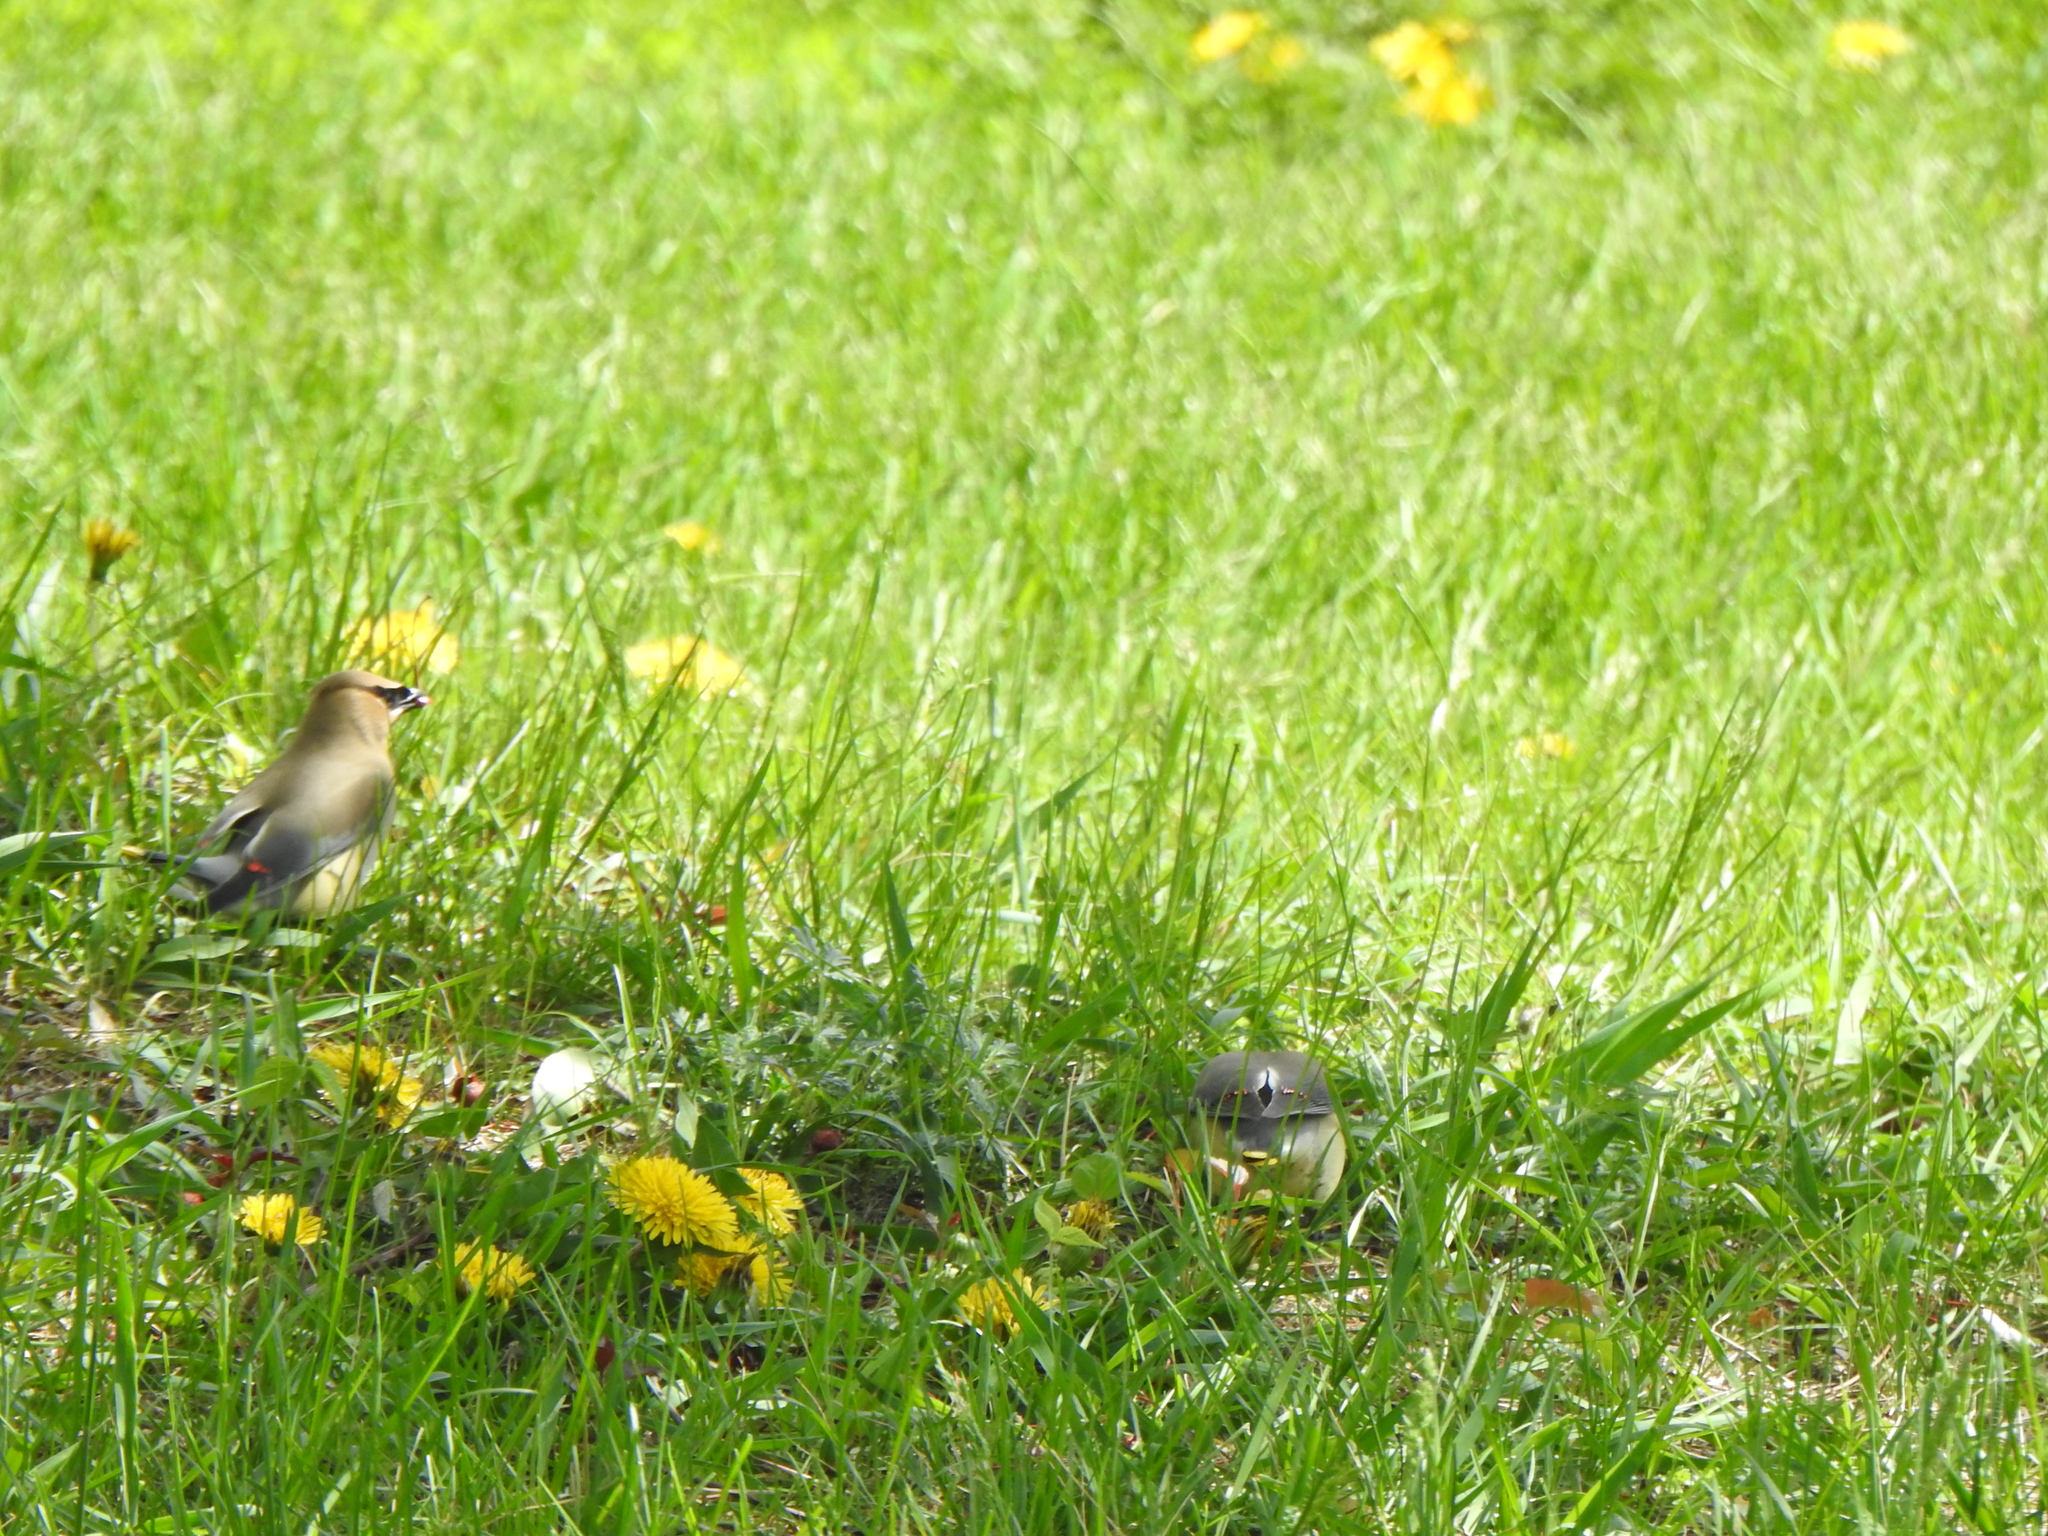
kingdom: Animalia
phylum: Chordata
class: Aves
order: Passeriformes
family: Bombycillidae
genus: Bombycilla
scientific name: Bombycilla cedrorum
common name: Cedar waxwing
